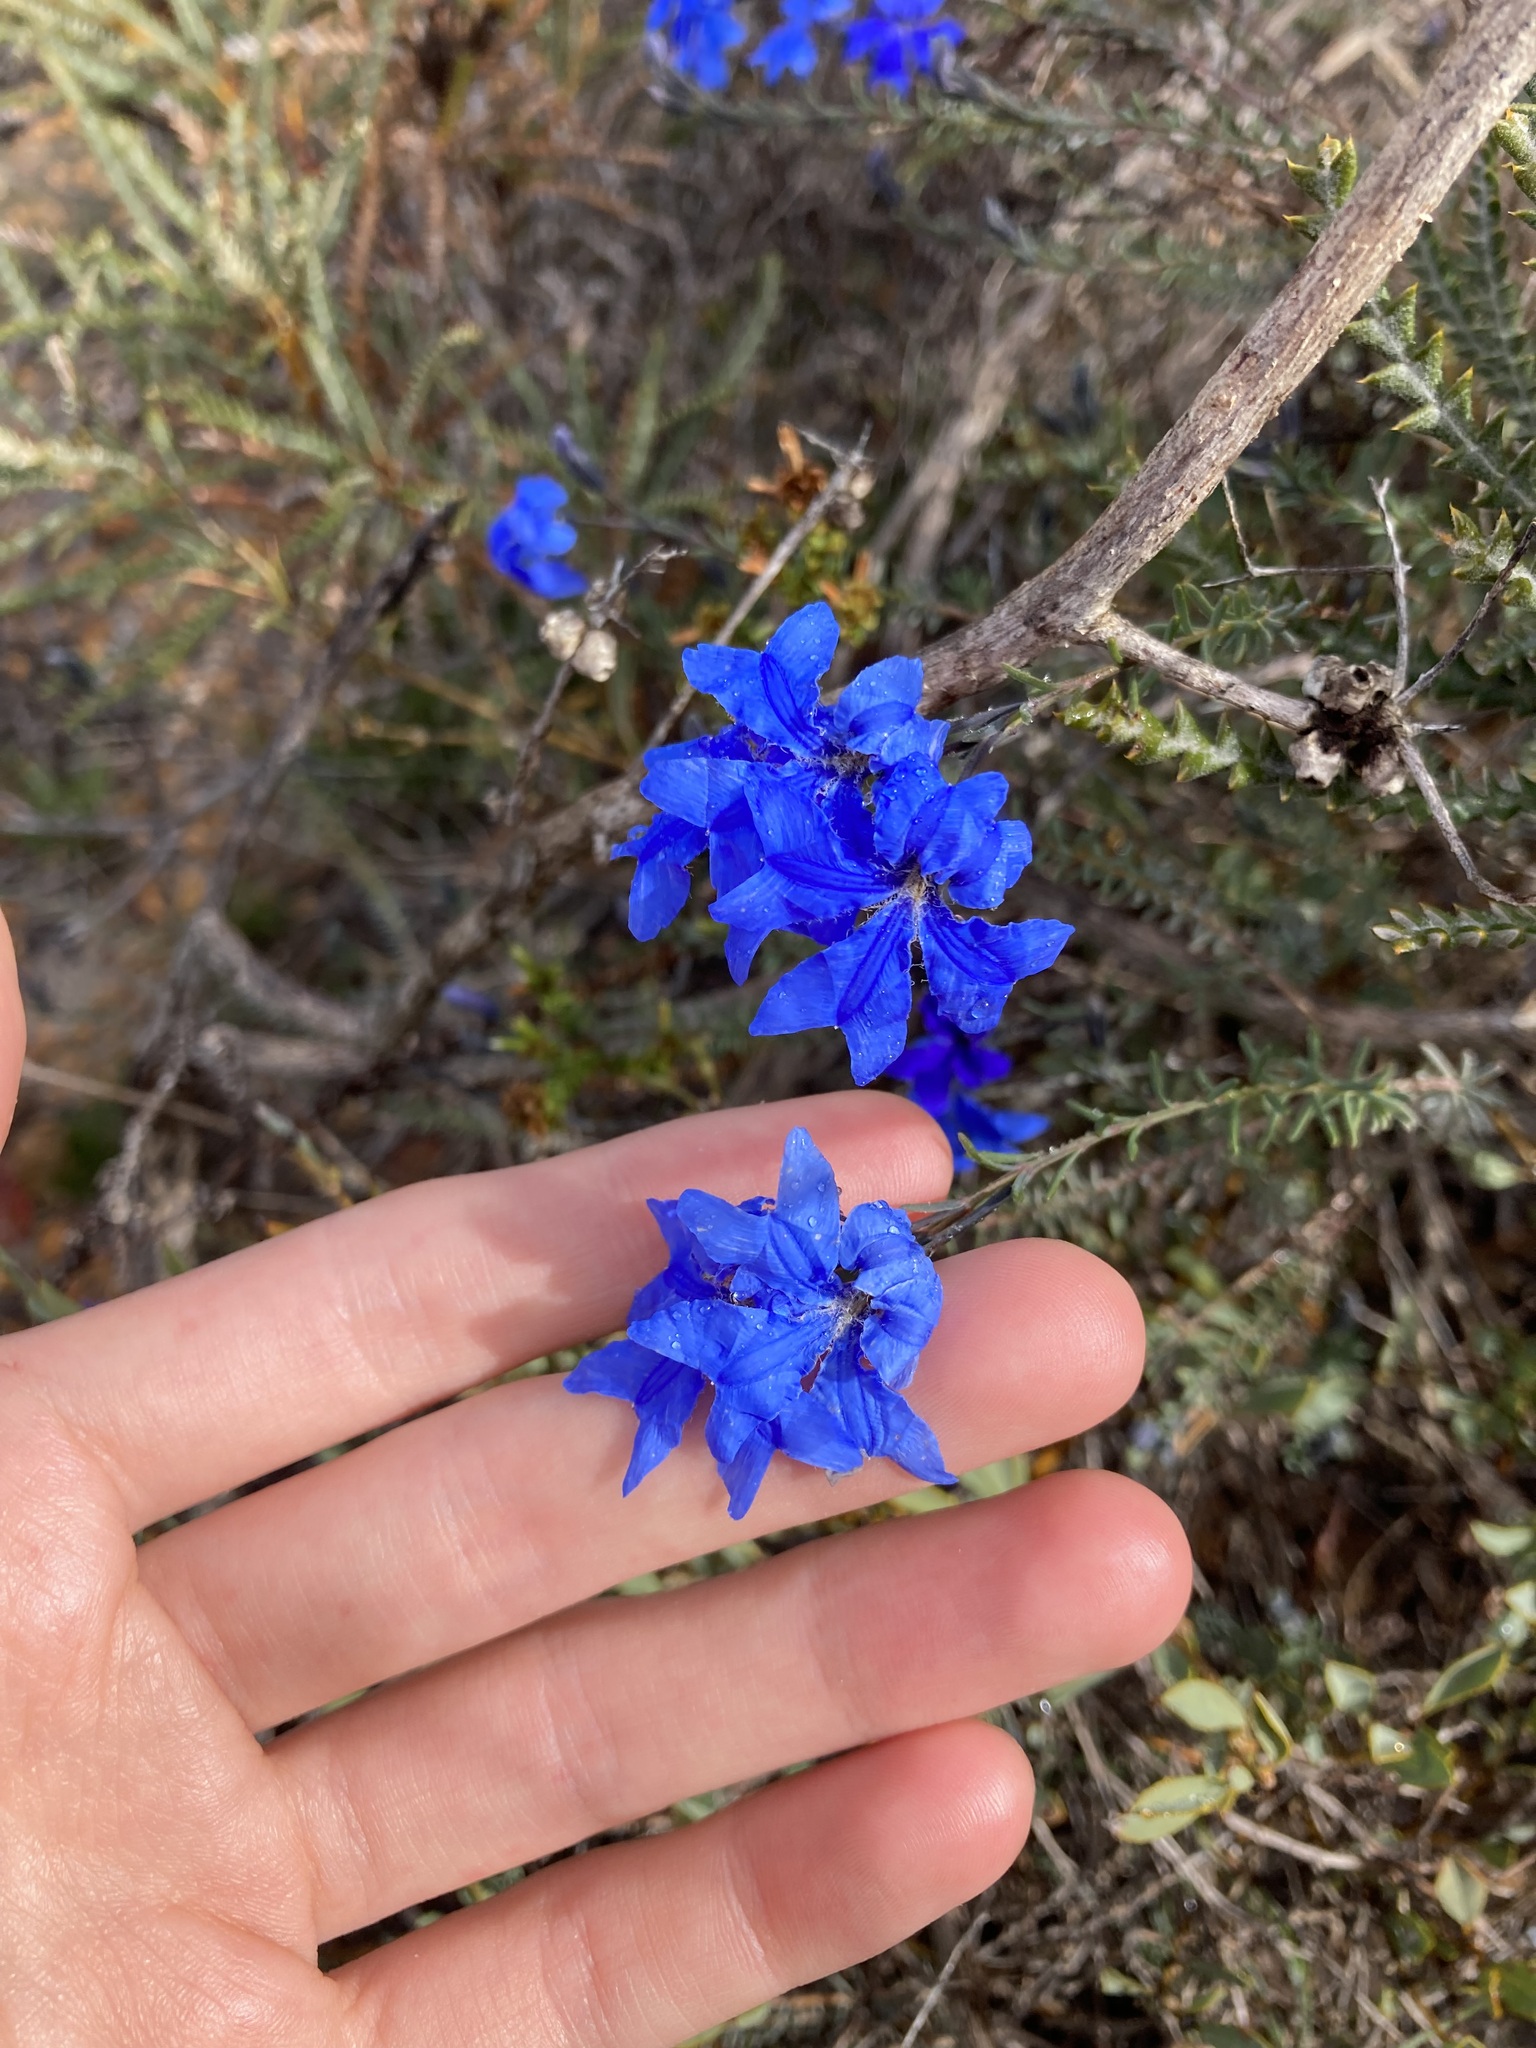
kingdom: Plantae
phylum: Tracheophyta
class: Magnoliopsida
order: Asterales
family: Goodeniaceae
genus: Lechenaultia
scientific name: Lechenaultia biloba
